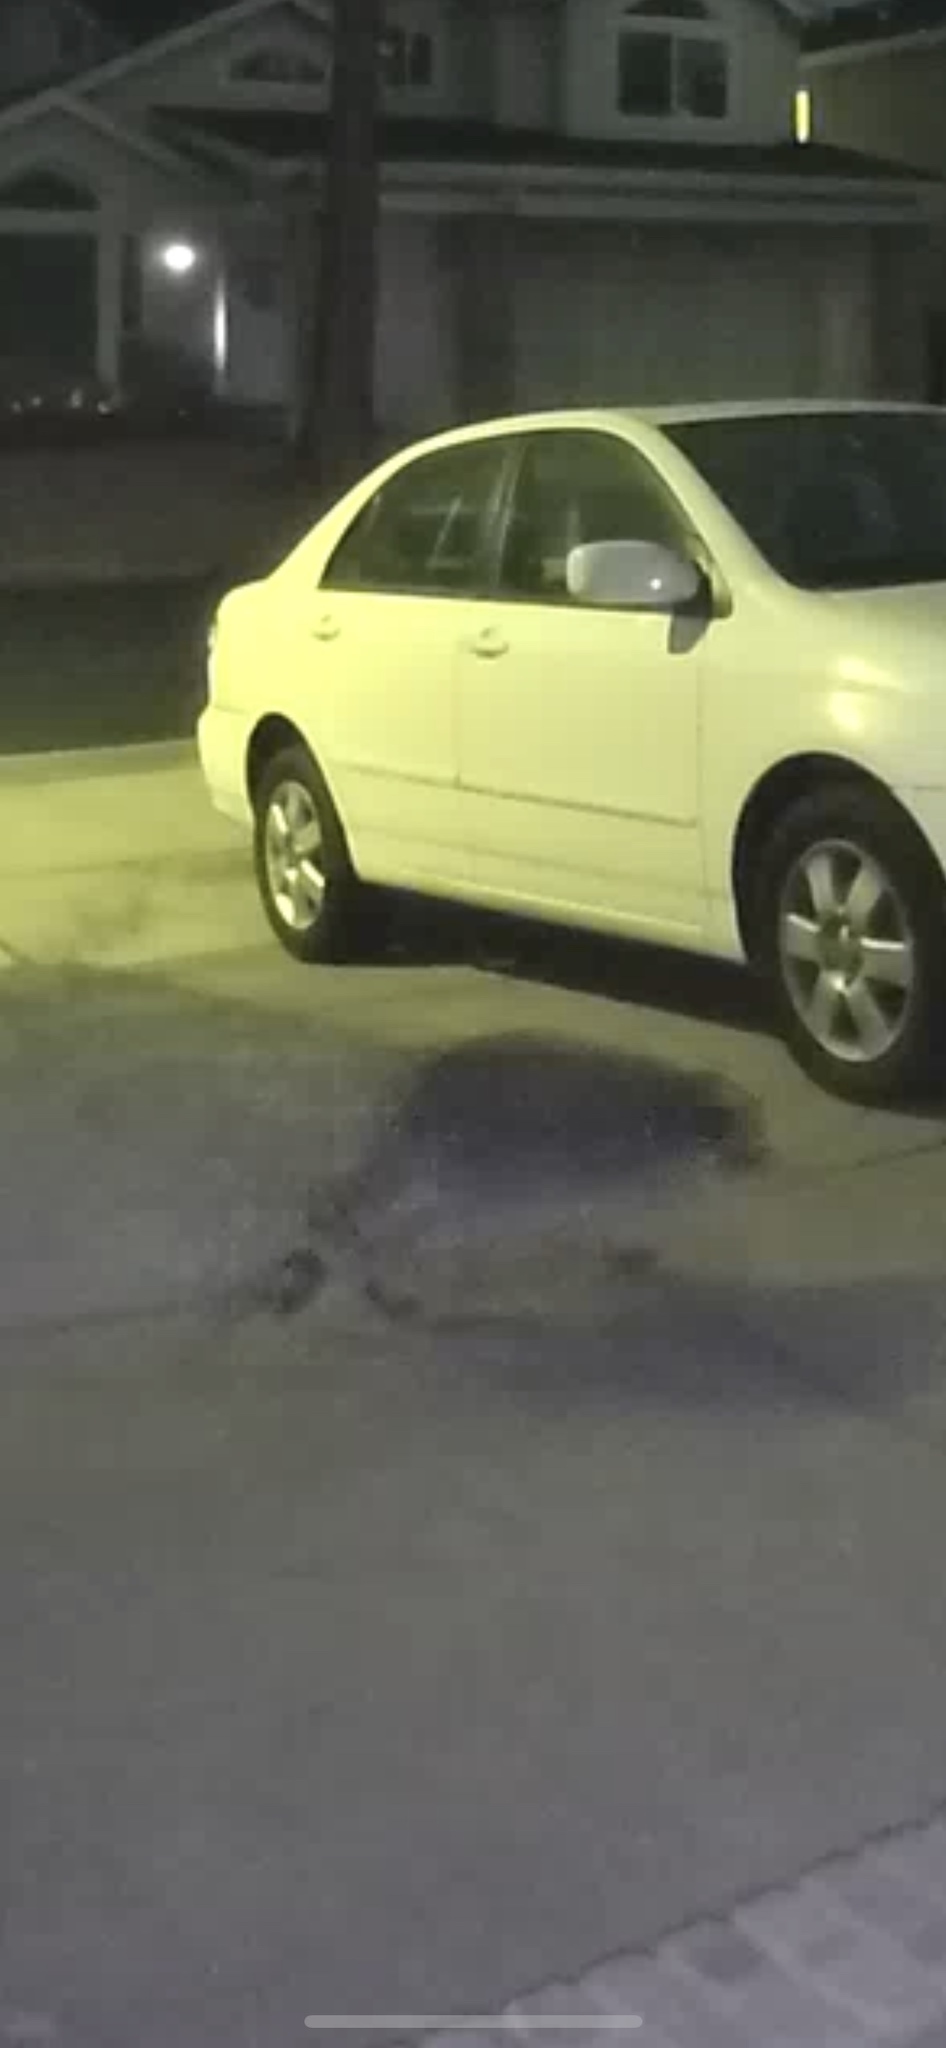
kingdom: Animalia
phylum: Chordata
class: Mammalia
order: Carnivora
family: Procyonidae
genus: Procyon
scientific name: Procyon lotor
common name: Raccoon
